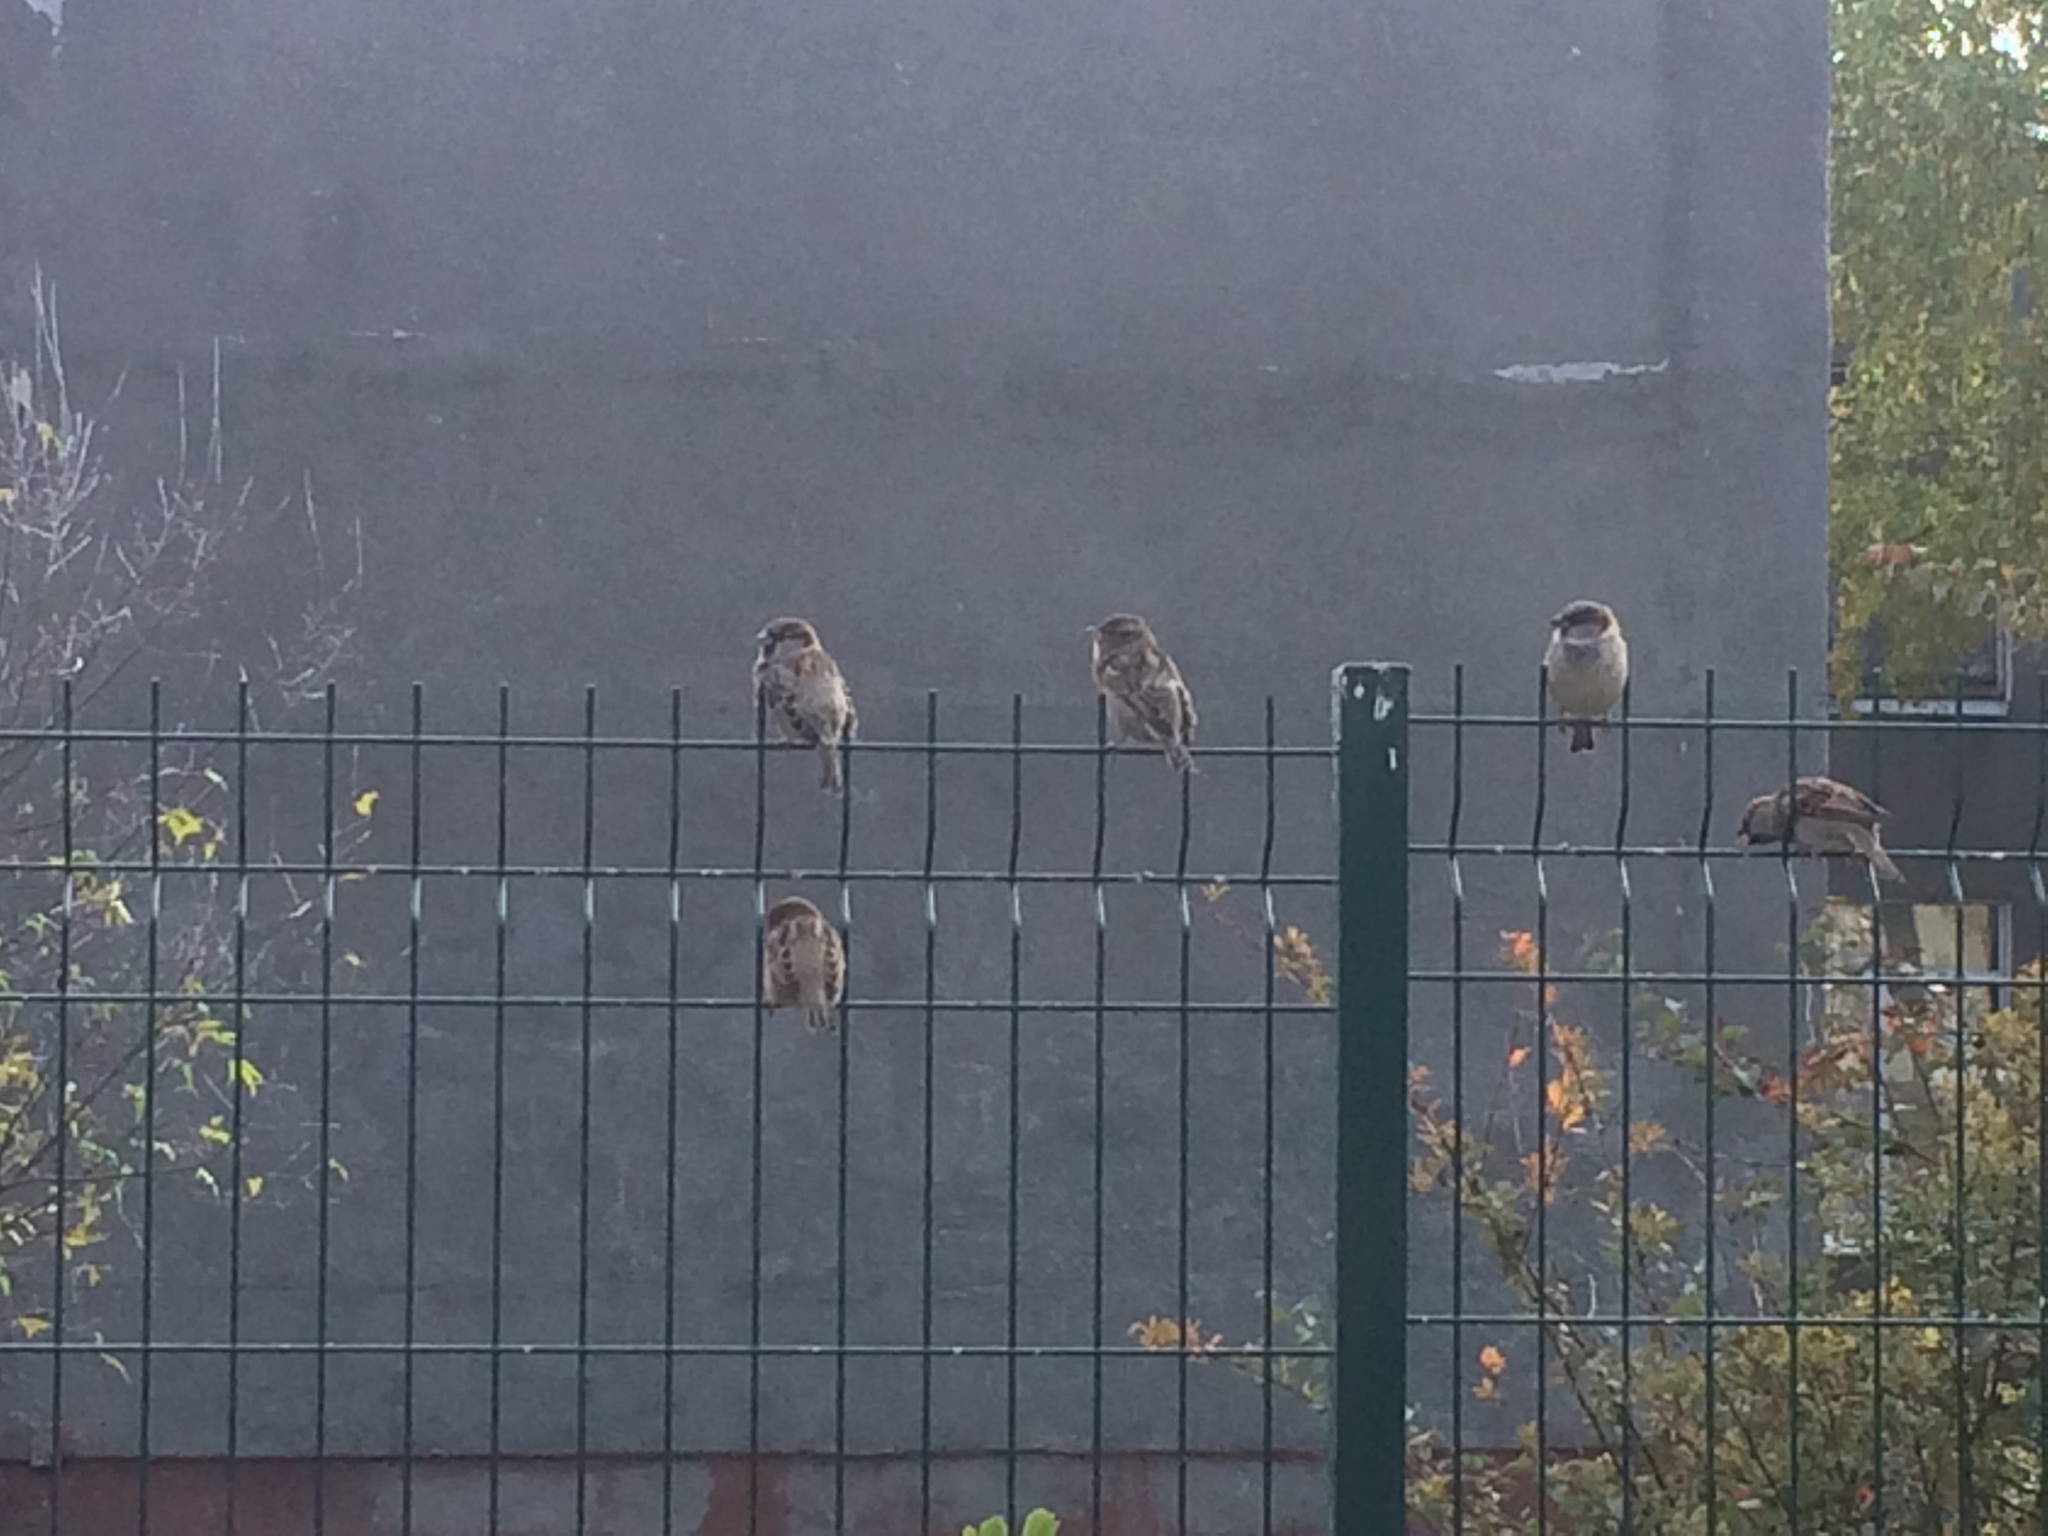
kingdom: Animalia
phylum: Chordata
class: Aves
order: Passeriformes
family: Passeridae
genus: Passer
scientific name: Passer domesticus
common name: House sparrow
